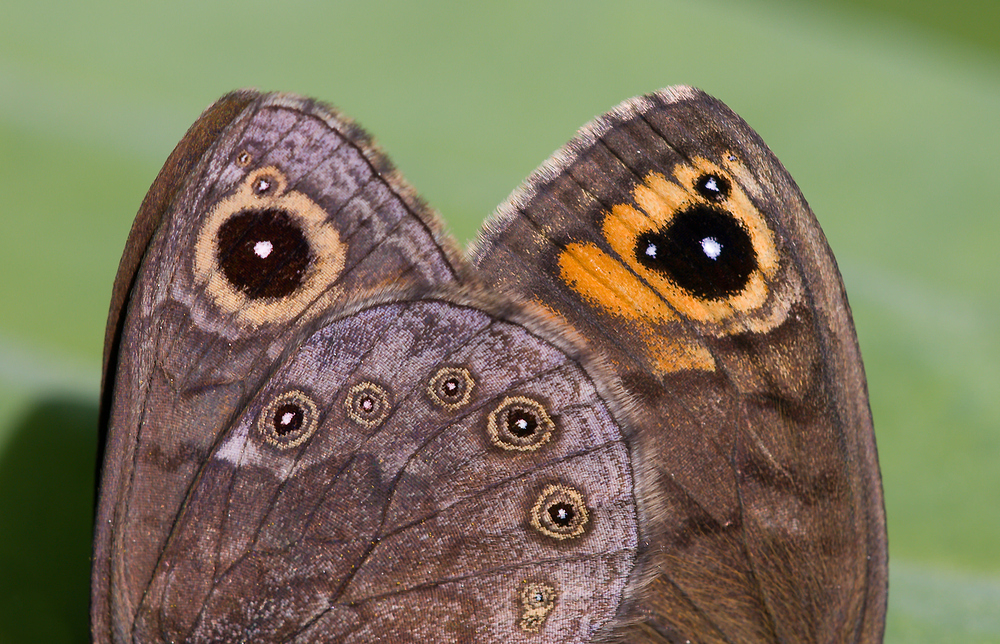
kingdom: Animalia
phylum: Arthropoda
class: Insecta
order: Lepidoptera
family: Nymphalidae
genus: Pararge
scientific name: Pararge petropolitana
